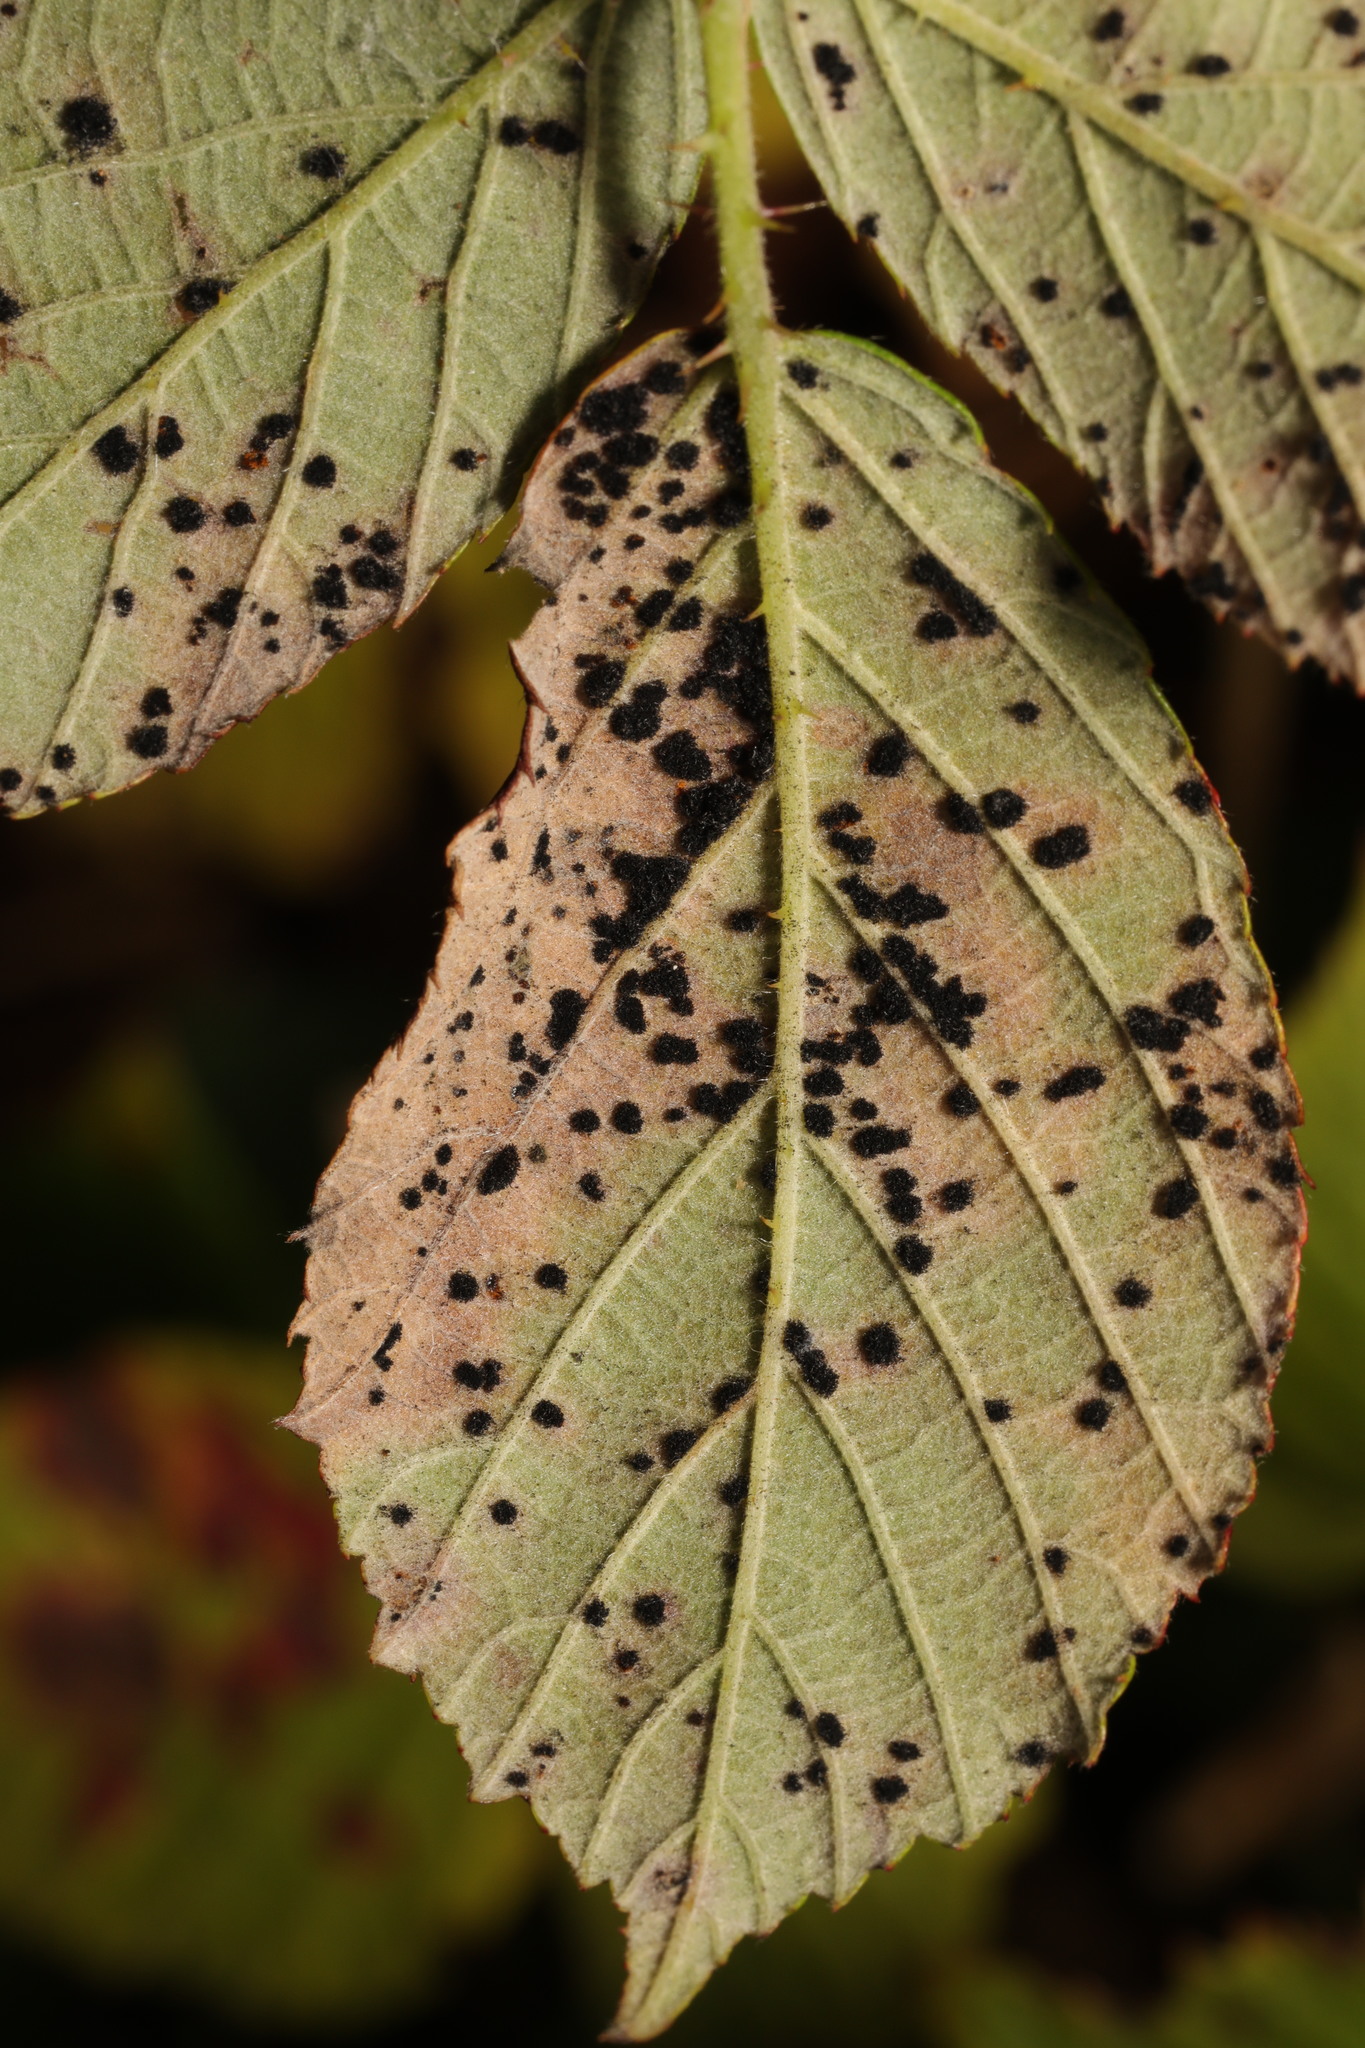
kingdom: Fungi
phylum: Basidiomycota
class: Pucciniomycetes
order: Pucciniales
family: Phragmidiaceae
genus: Phragmidium
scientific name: Phragmidium violaceum
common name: Violet bramble rust
